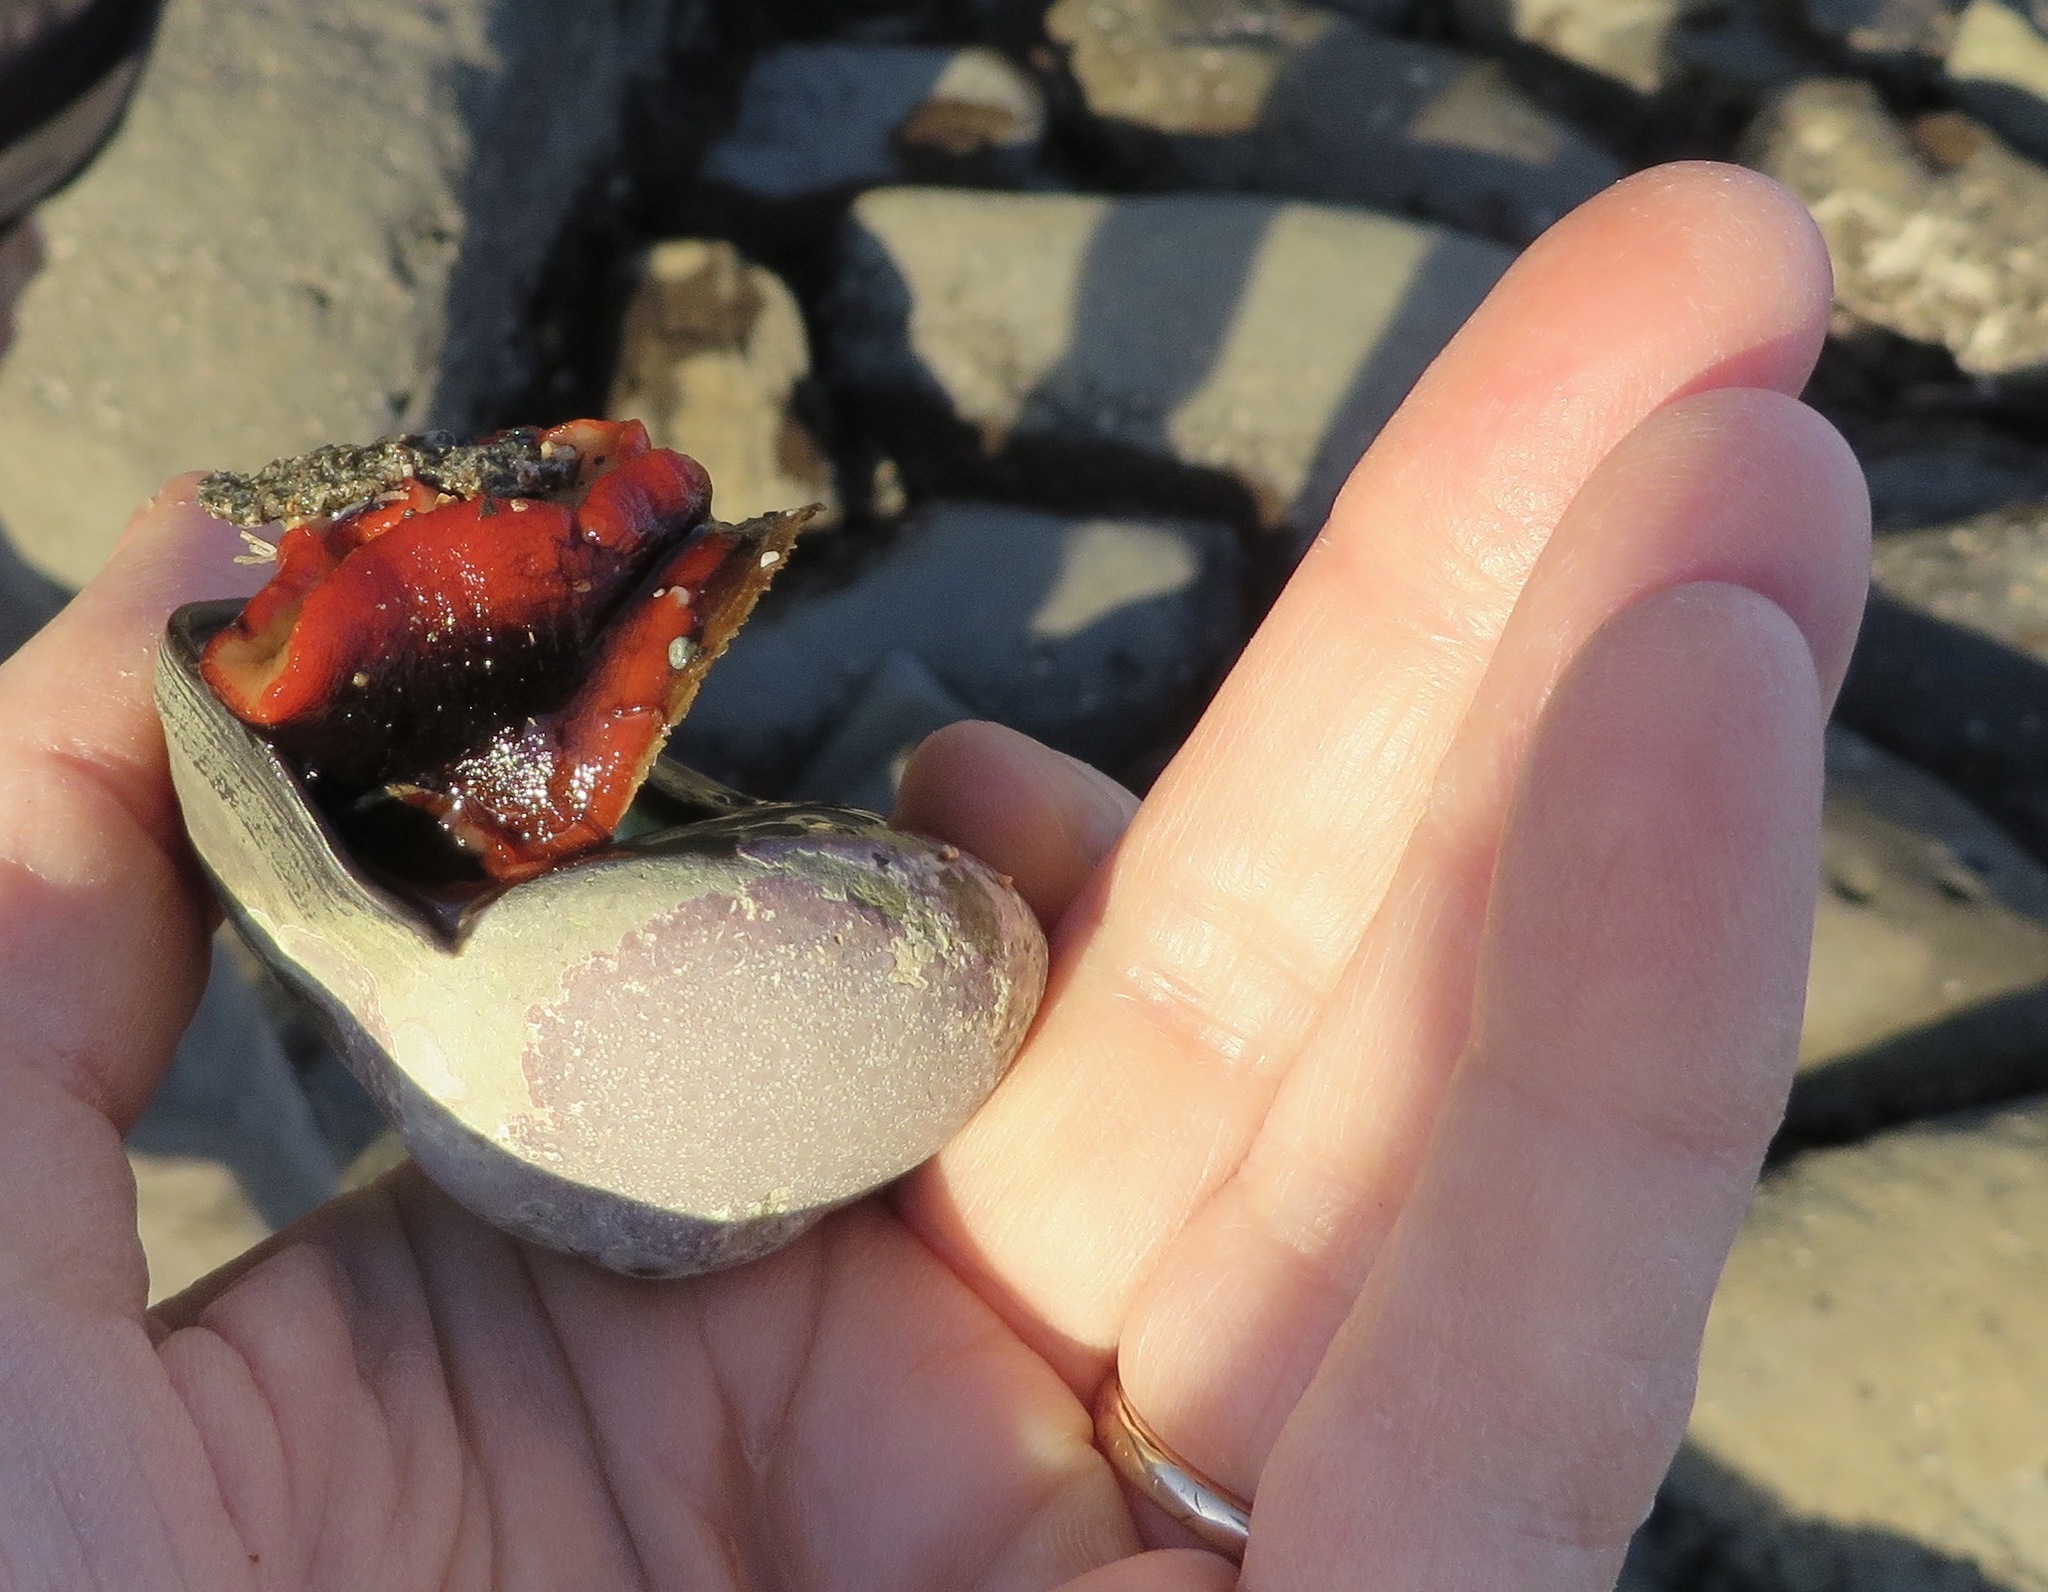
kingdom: Animalia
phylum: Mollusca
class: Gastropoda
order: Trochida
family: Tegulidae
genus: Norrisia
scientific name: Norrisia norrisii
